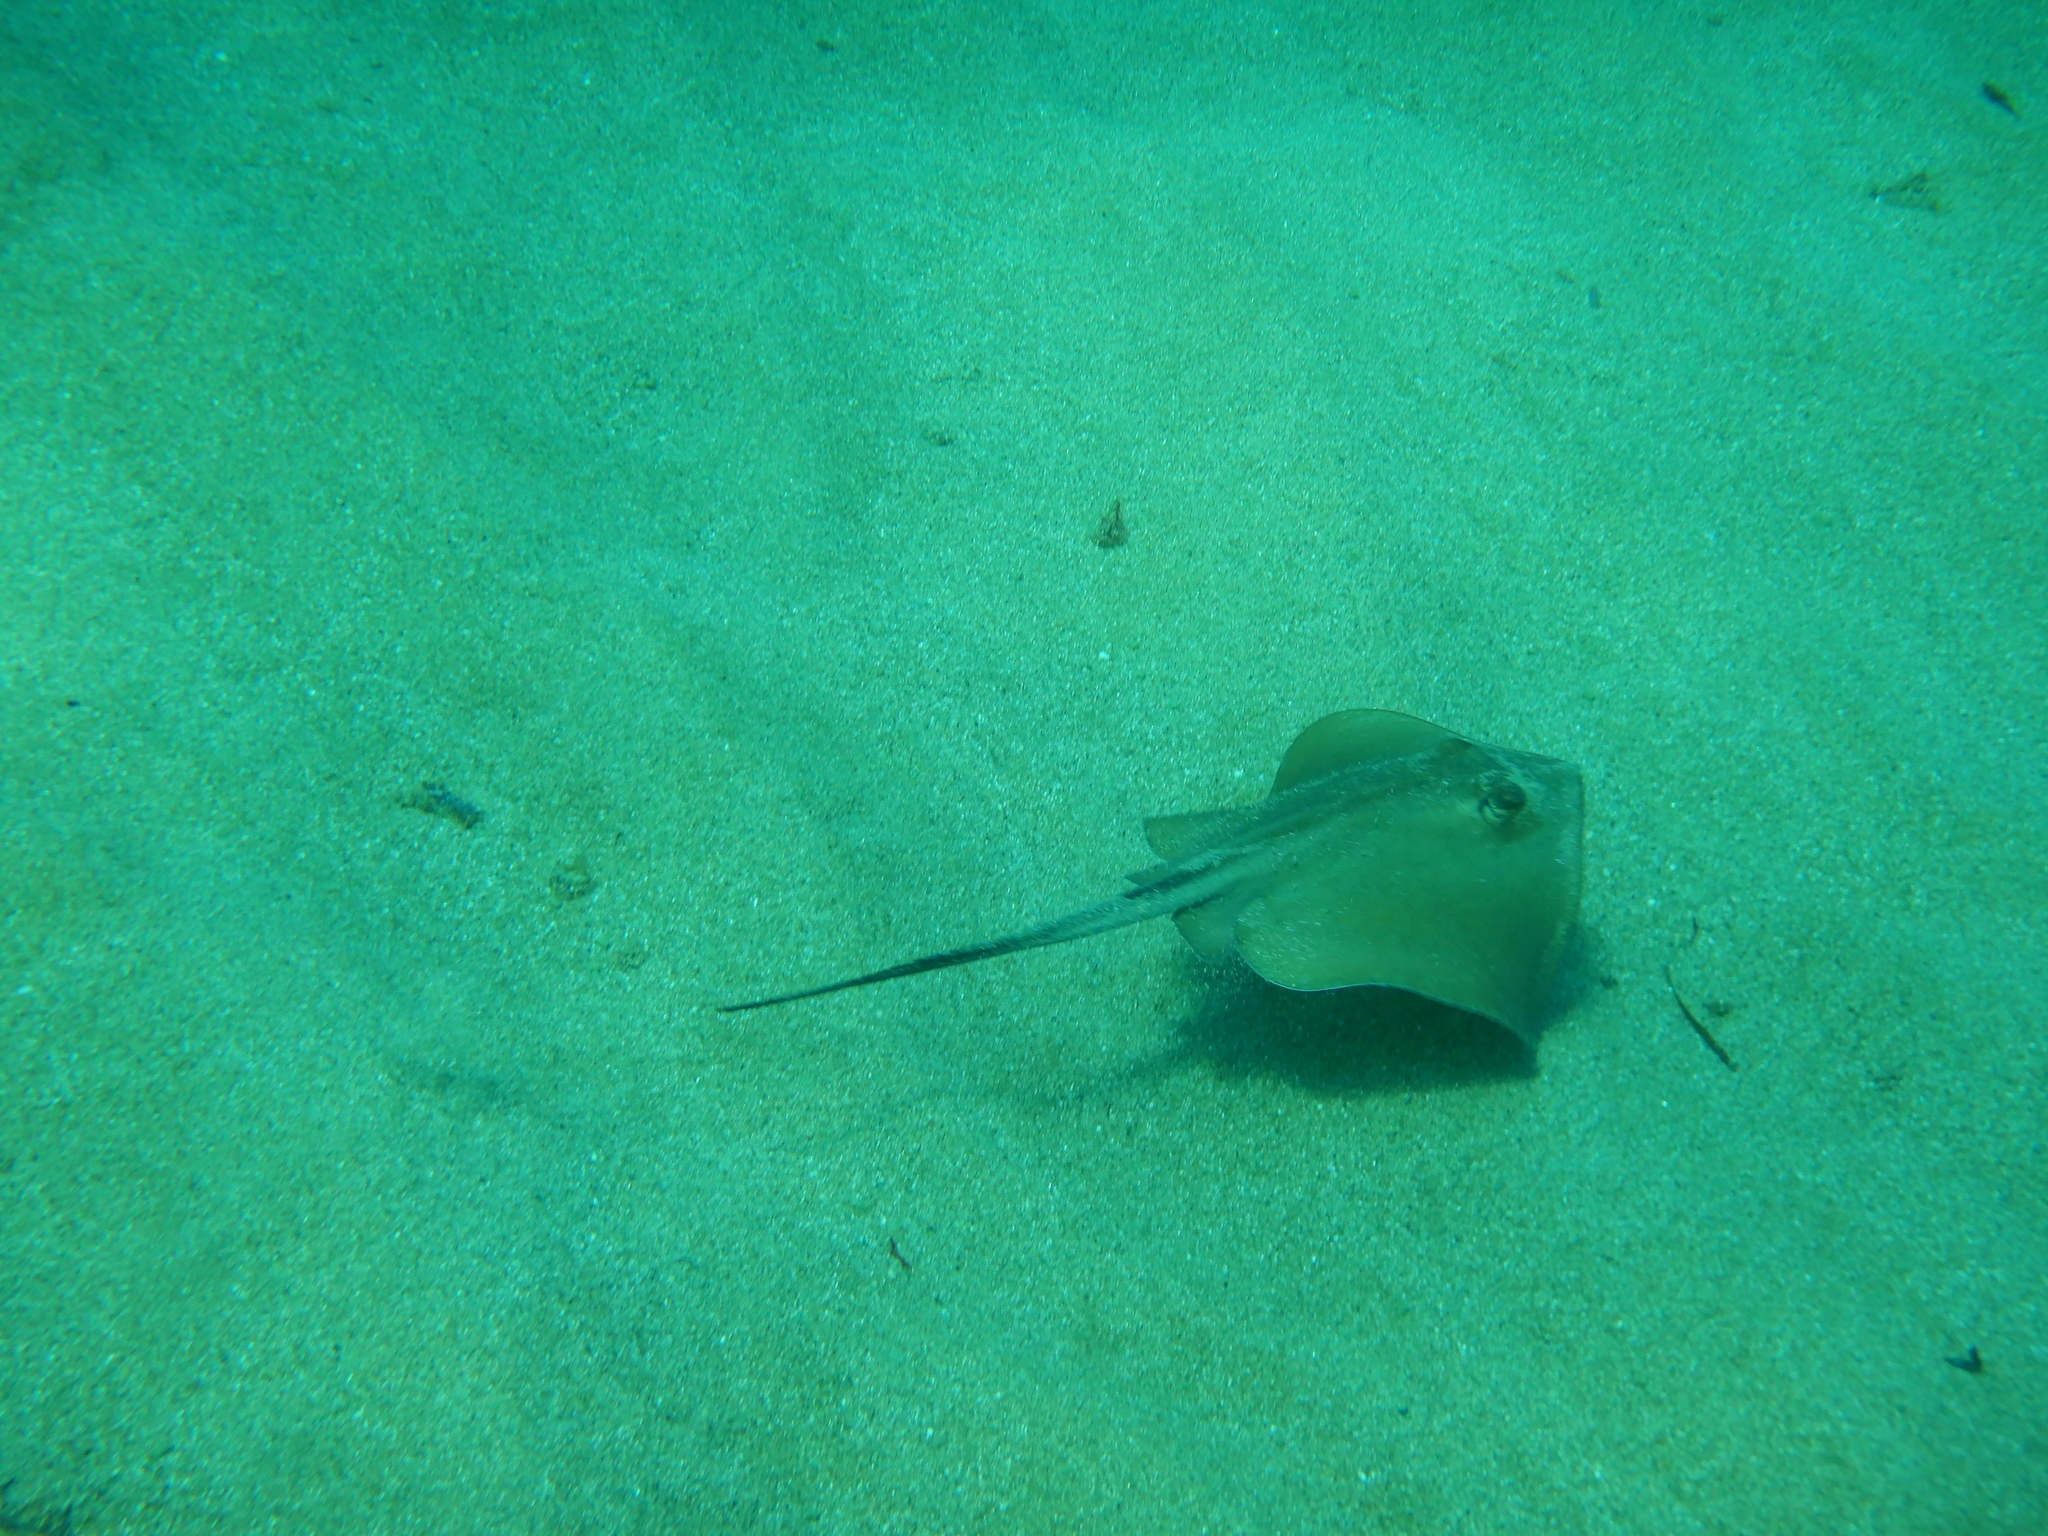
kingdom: Animalia
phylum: Chordata
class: Elasmobranchii
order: Myliobatiformes
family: Dasyatidae
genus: Dasyatis
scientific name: Dasyatis pastinaca
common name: Common stingray
